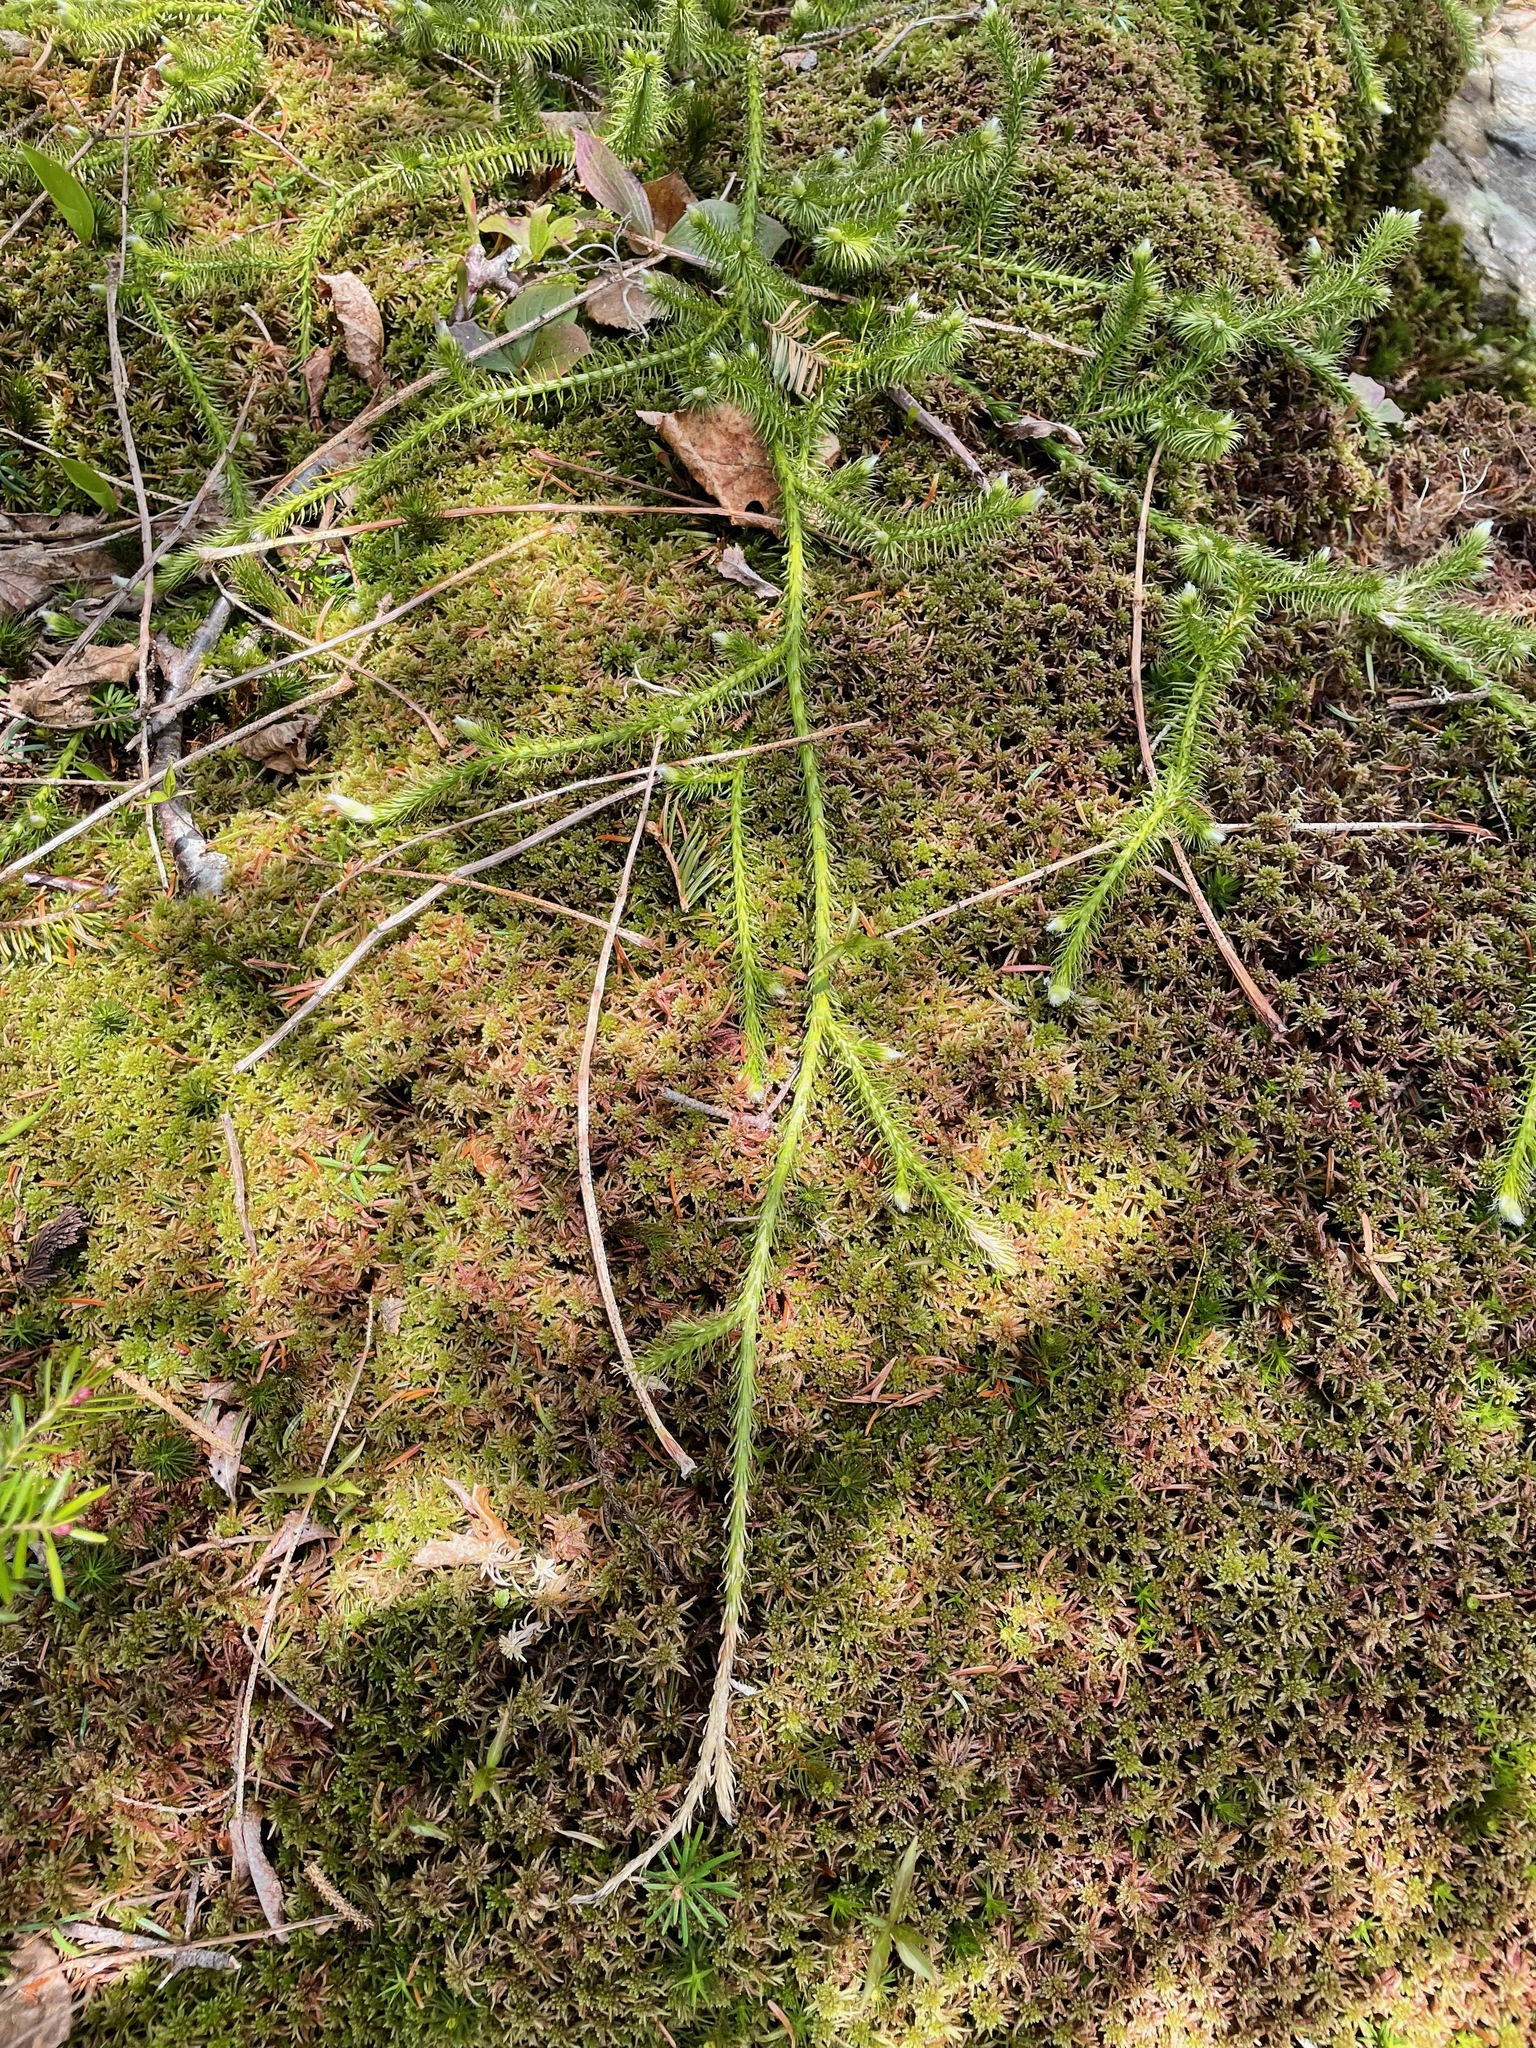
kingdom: Plantae
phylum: Tracheophyta
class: Lycopodiopsida
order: Lycopodiales
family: Lycopodiaceae
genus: Lycopodium
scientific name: Lycopodium clavatum
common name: Stag's-horn clubmoss
